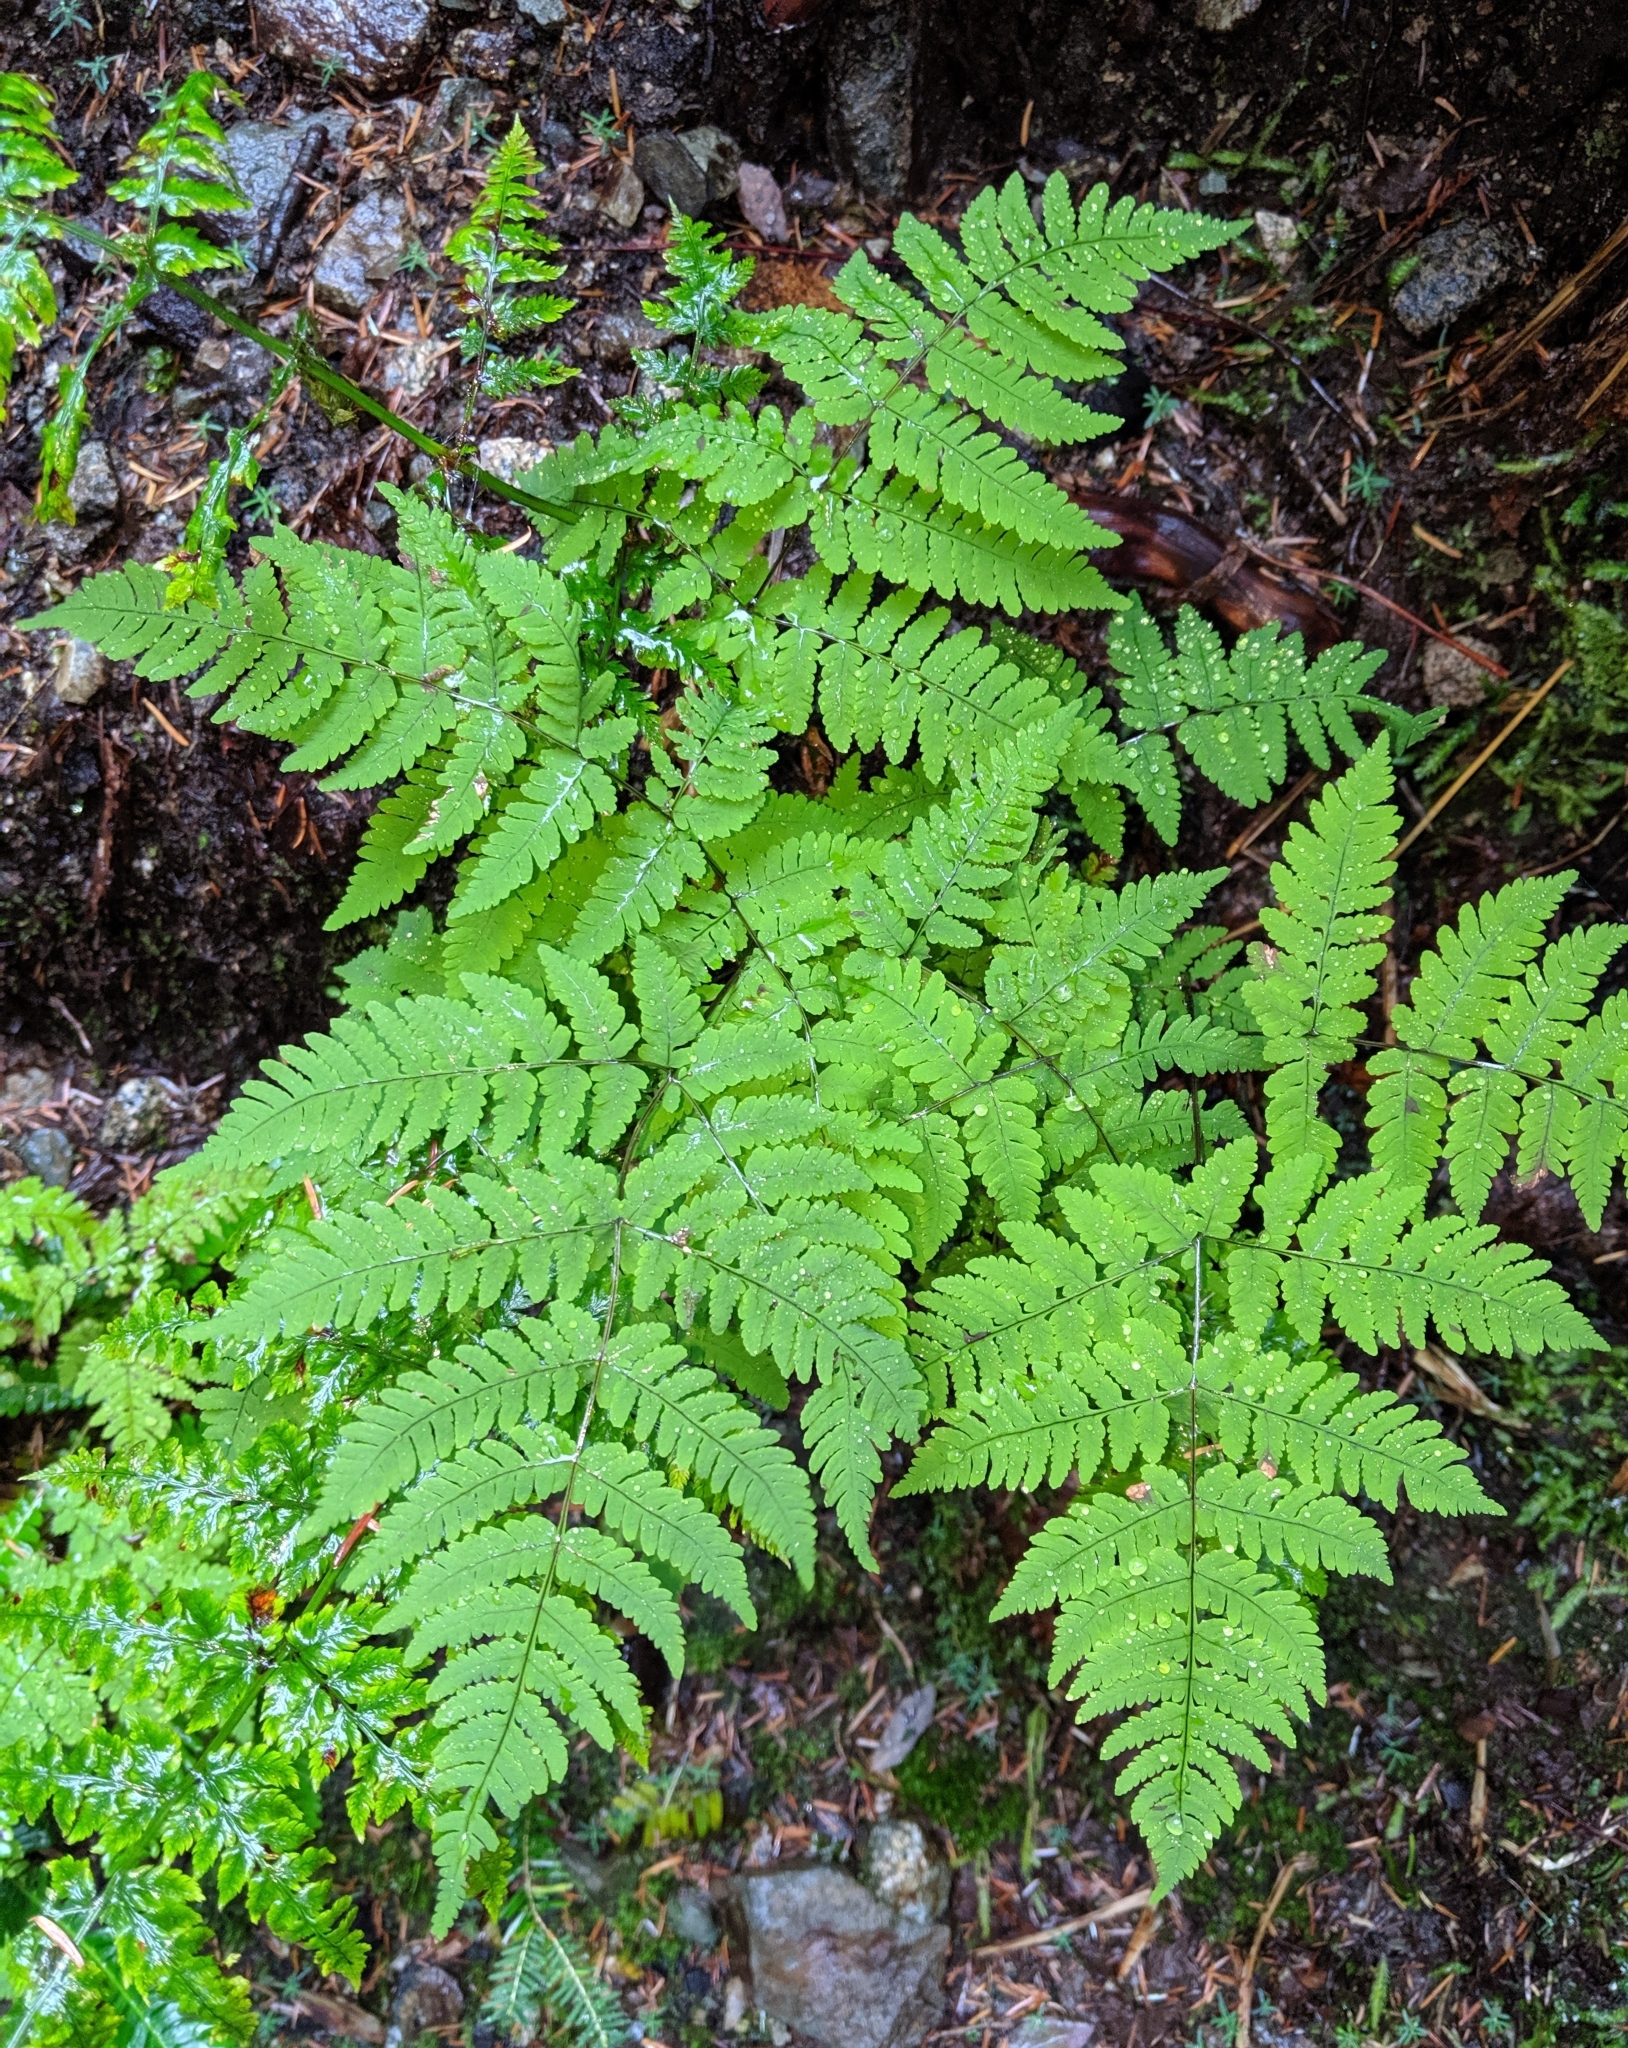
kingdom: Plantae
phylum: Tracheophyta
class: Polypodiopsida
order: Polypodiales
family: Cystopteridaceae
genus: Gymnocarpium
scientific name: Gymnocarpium disjunctum
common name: Western oak fern
